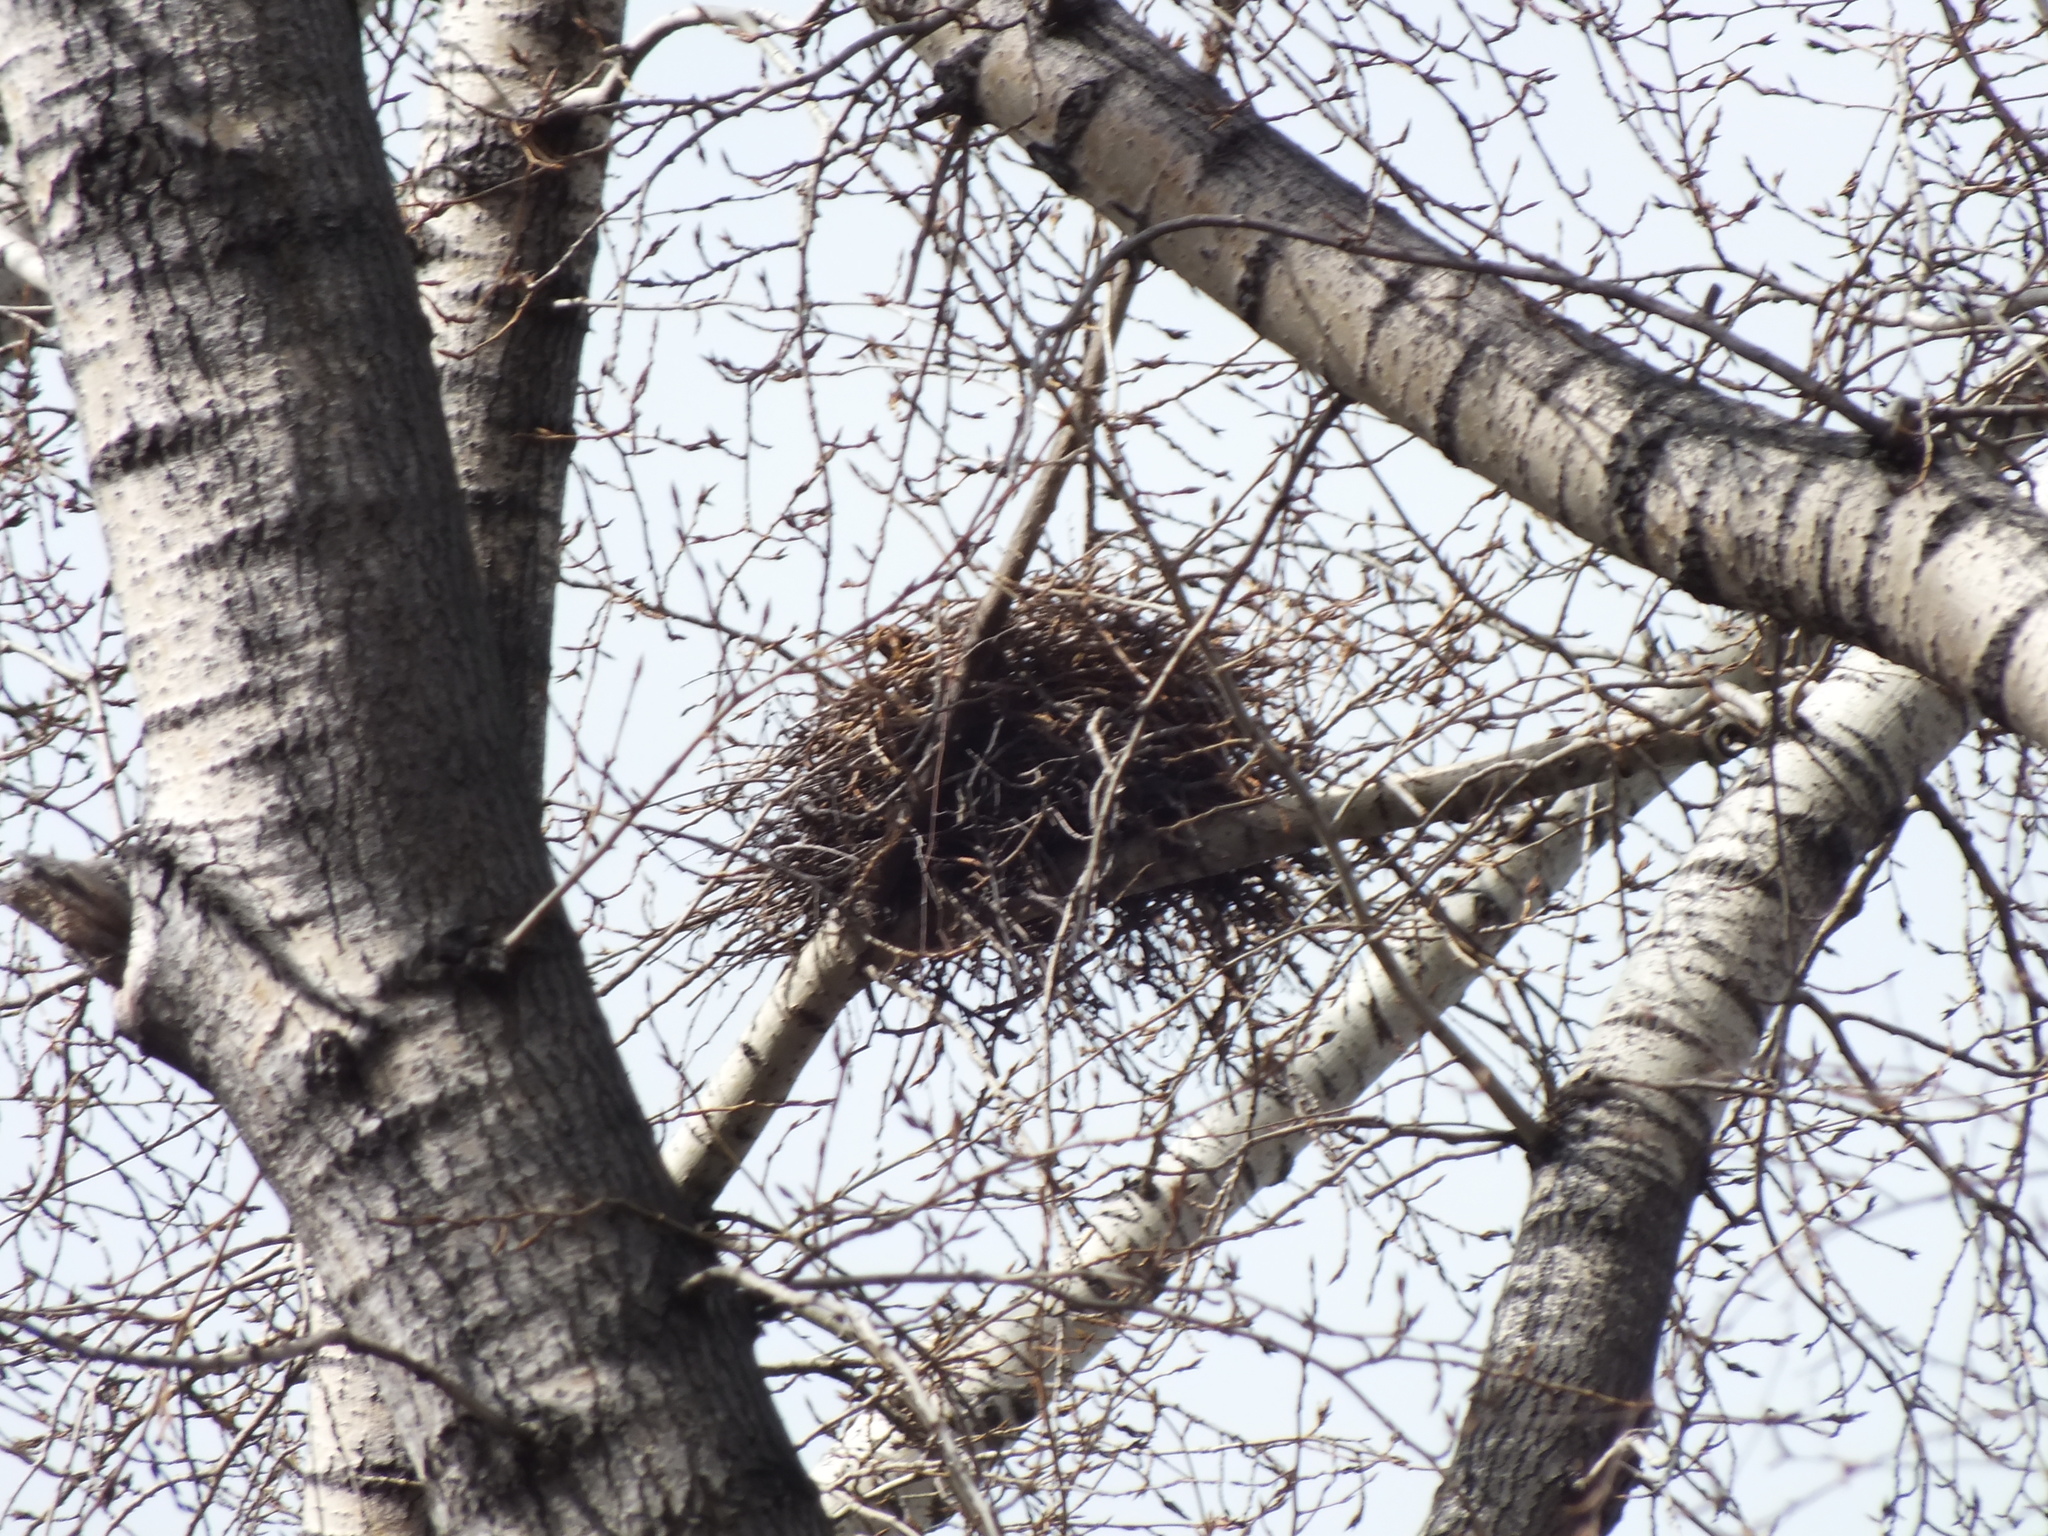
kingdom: Animalia
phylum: Chordata
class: Aves
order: Passeriformes
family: Corvidae
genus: Corvus
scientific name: Corvus frugilegus
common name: Rook
